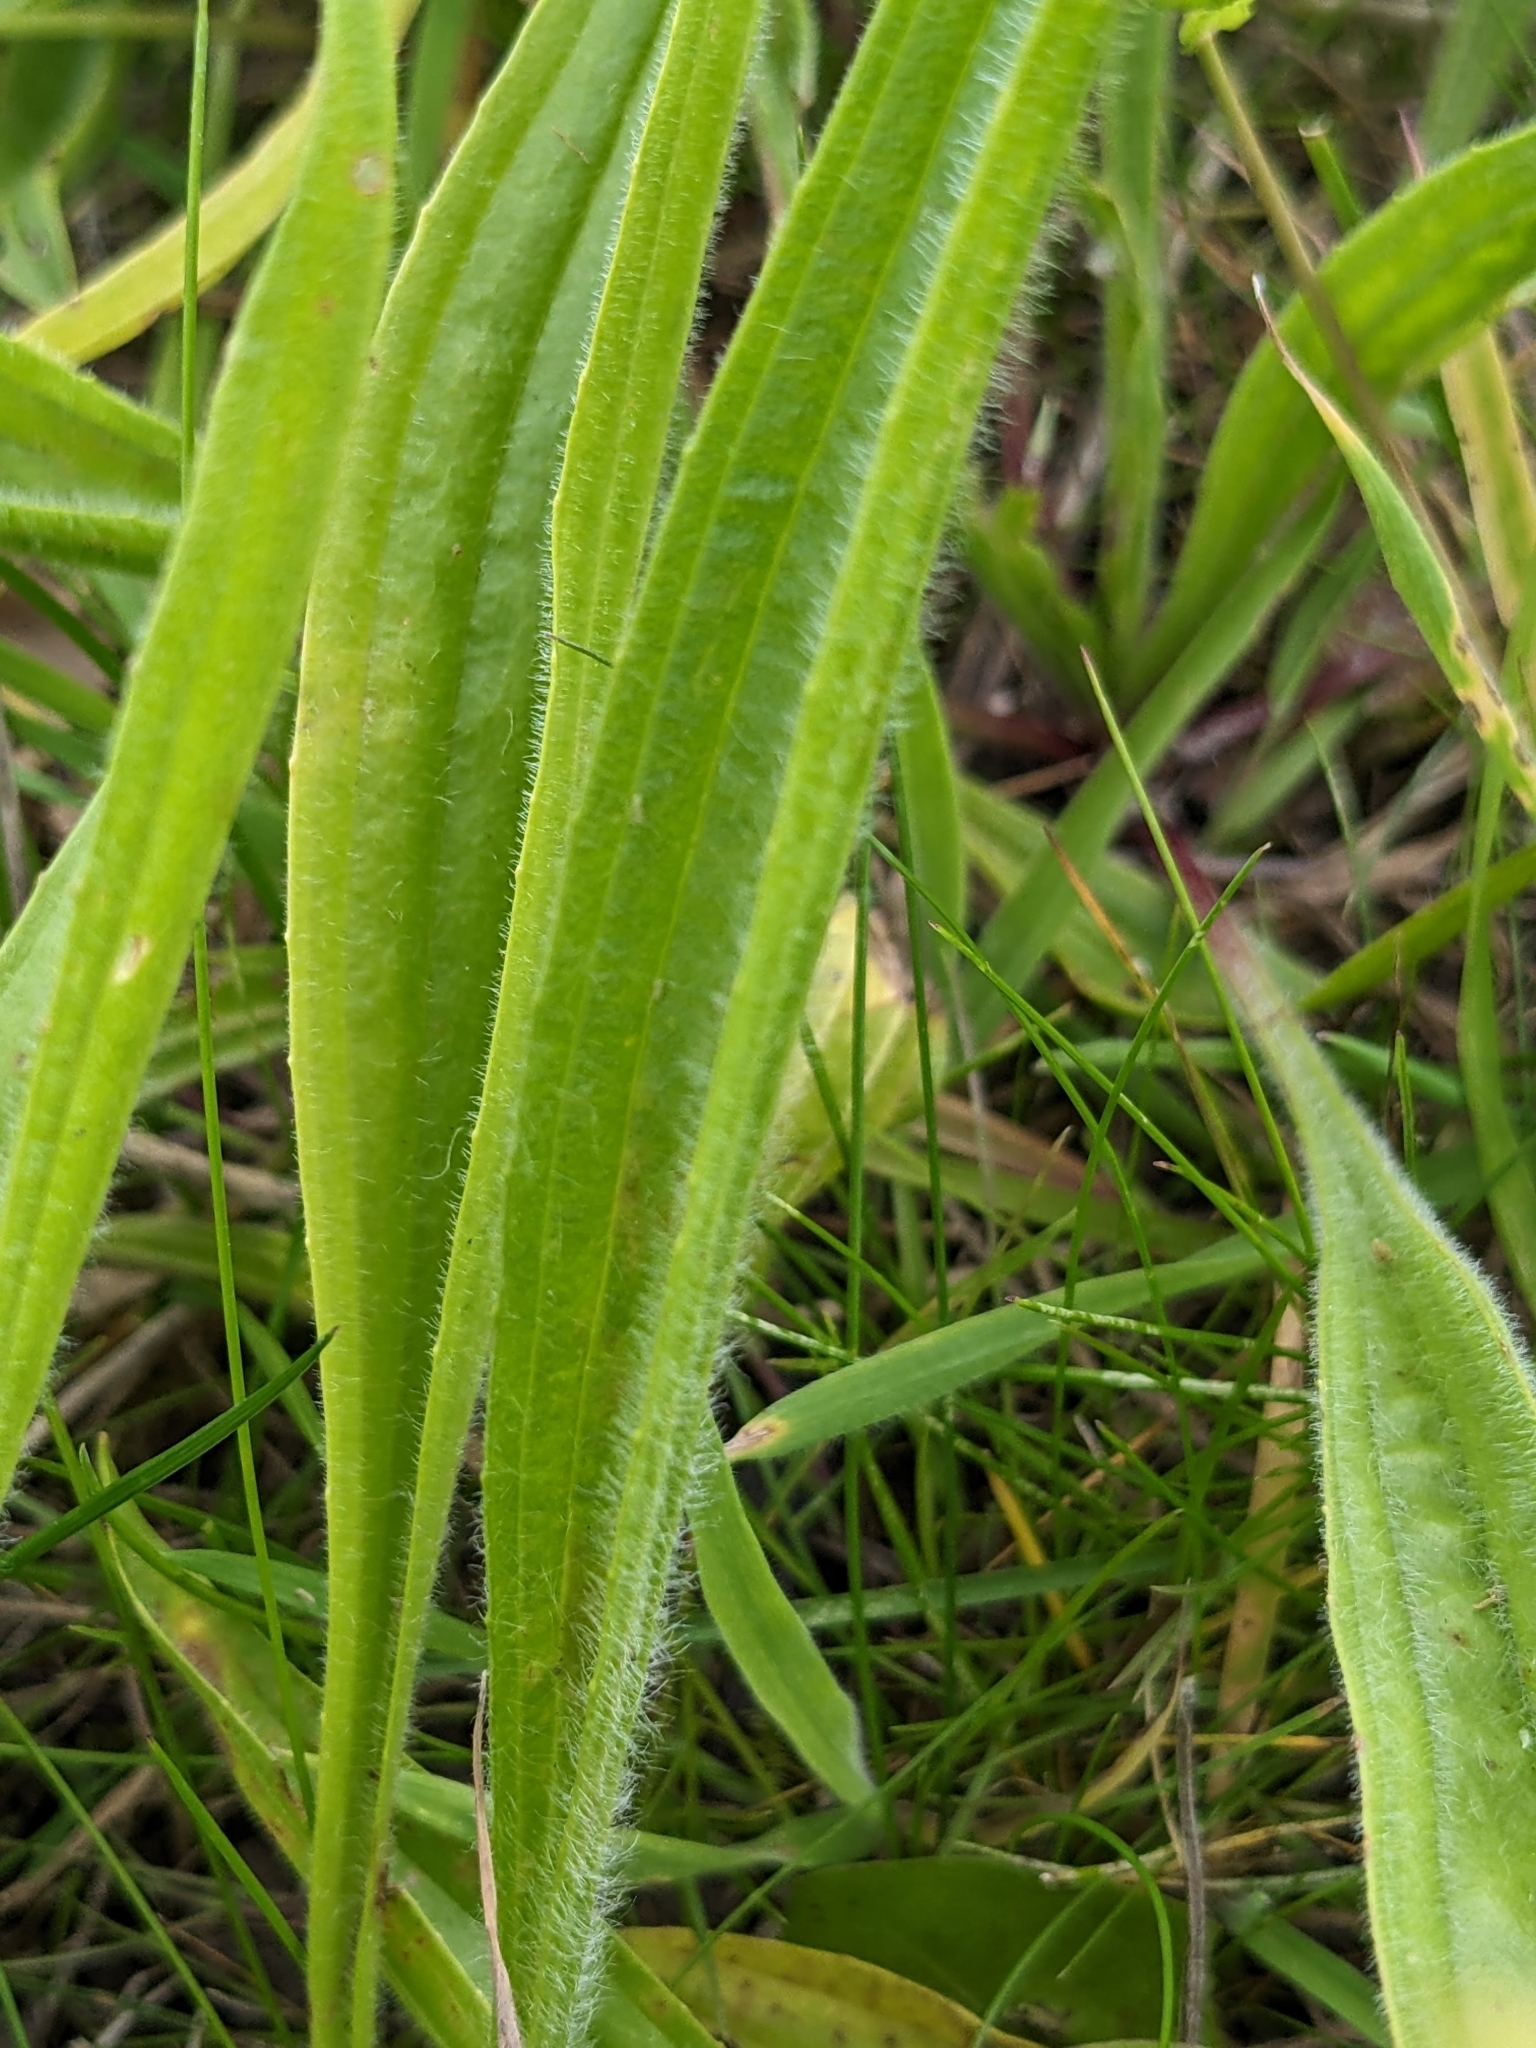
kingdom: Plantae
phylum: Tracheophyta
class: Magnoliopsida
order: Lamiales
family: Plantaginaceae
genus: Plantago
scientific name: Plantago lanceolata
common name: Ribwort plantain
